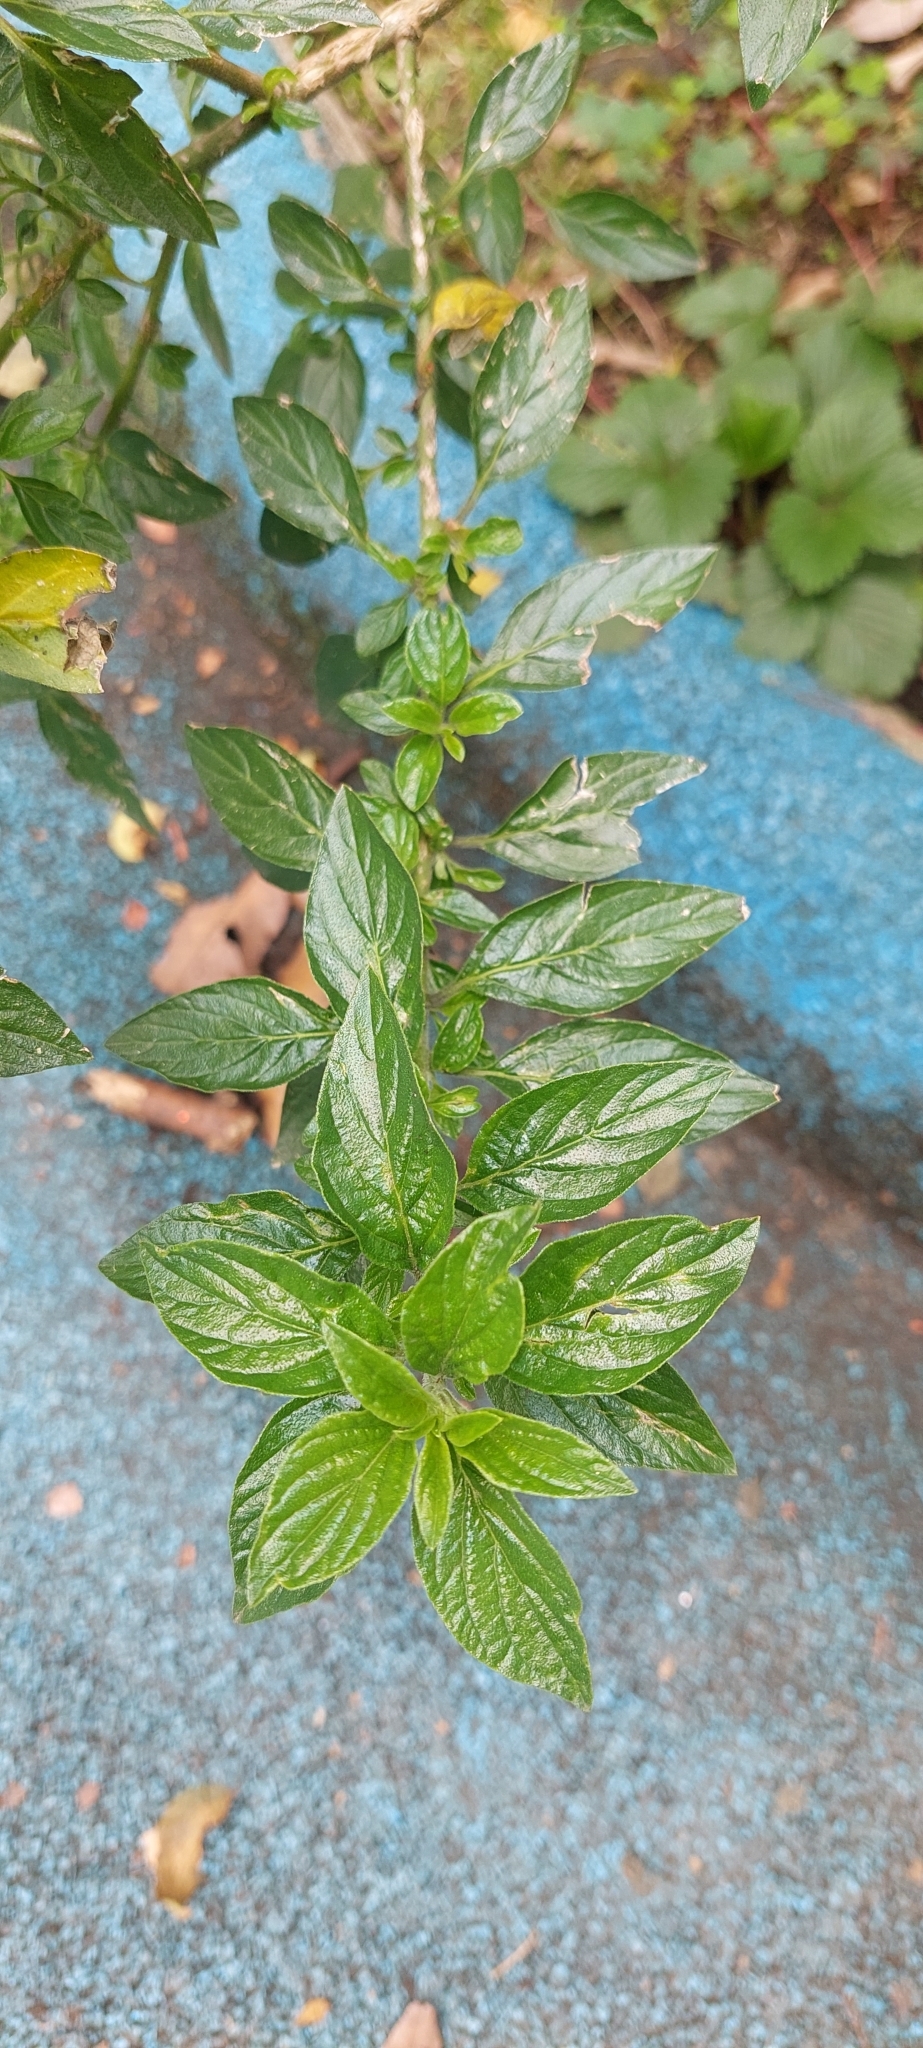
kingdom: Plantae
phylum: Tracheophyta
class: Magnoliopsida
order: Solanales
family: Solanaceae
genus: Streptosolen
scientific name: Streptosolen jamesonii
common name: Marmalade bush
